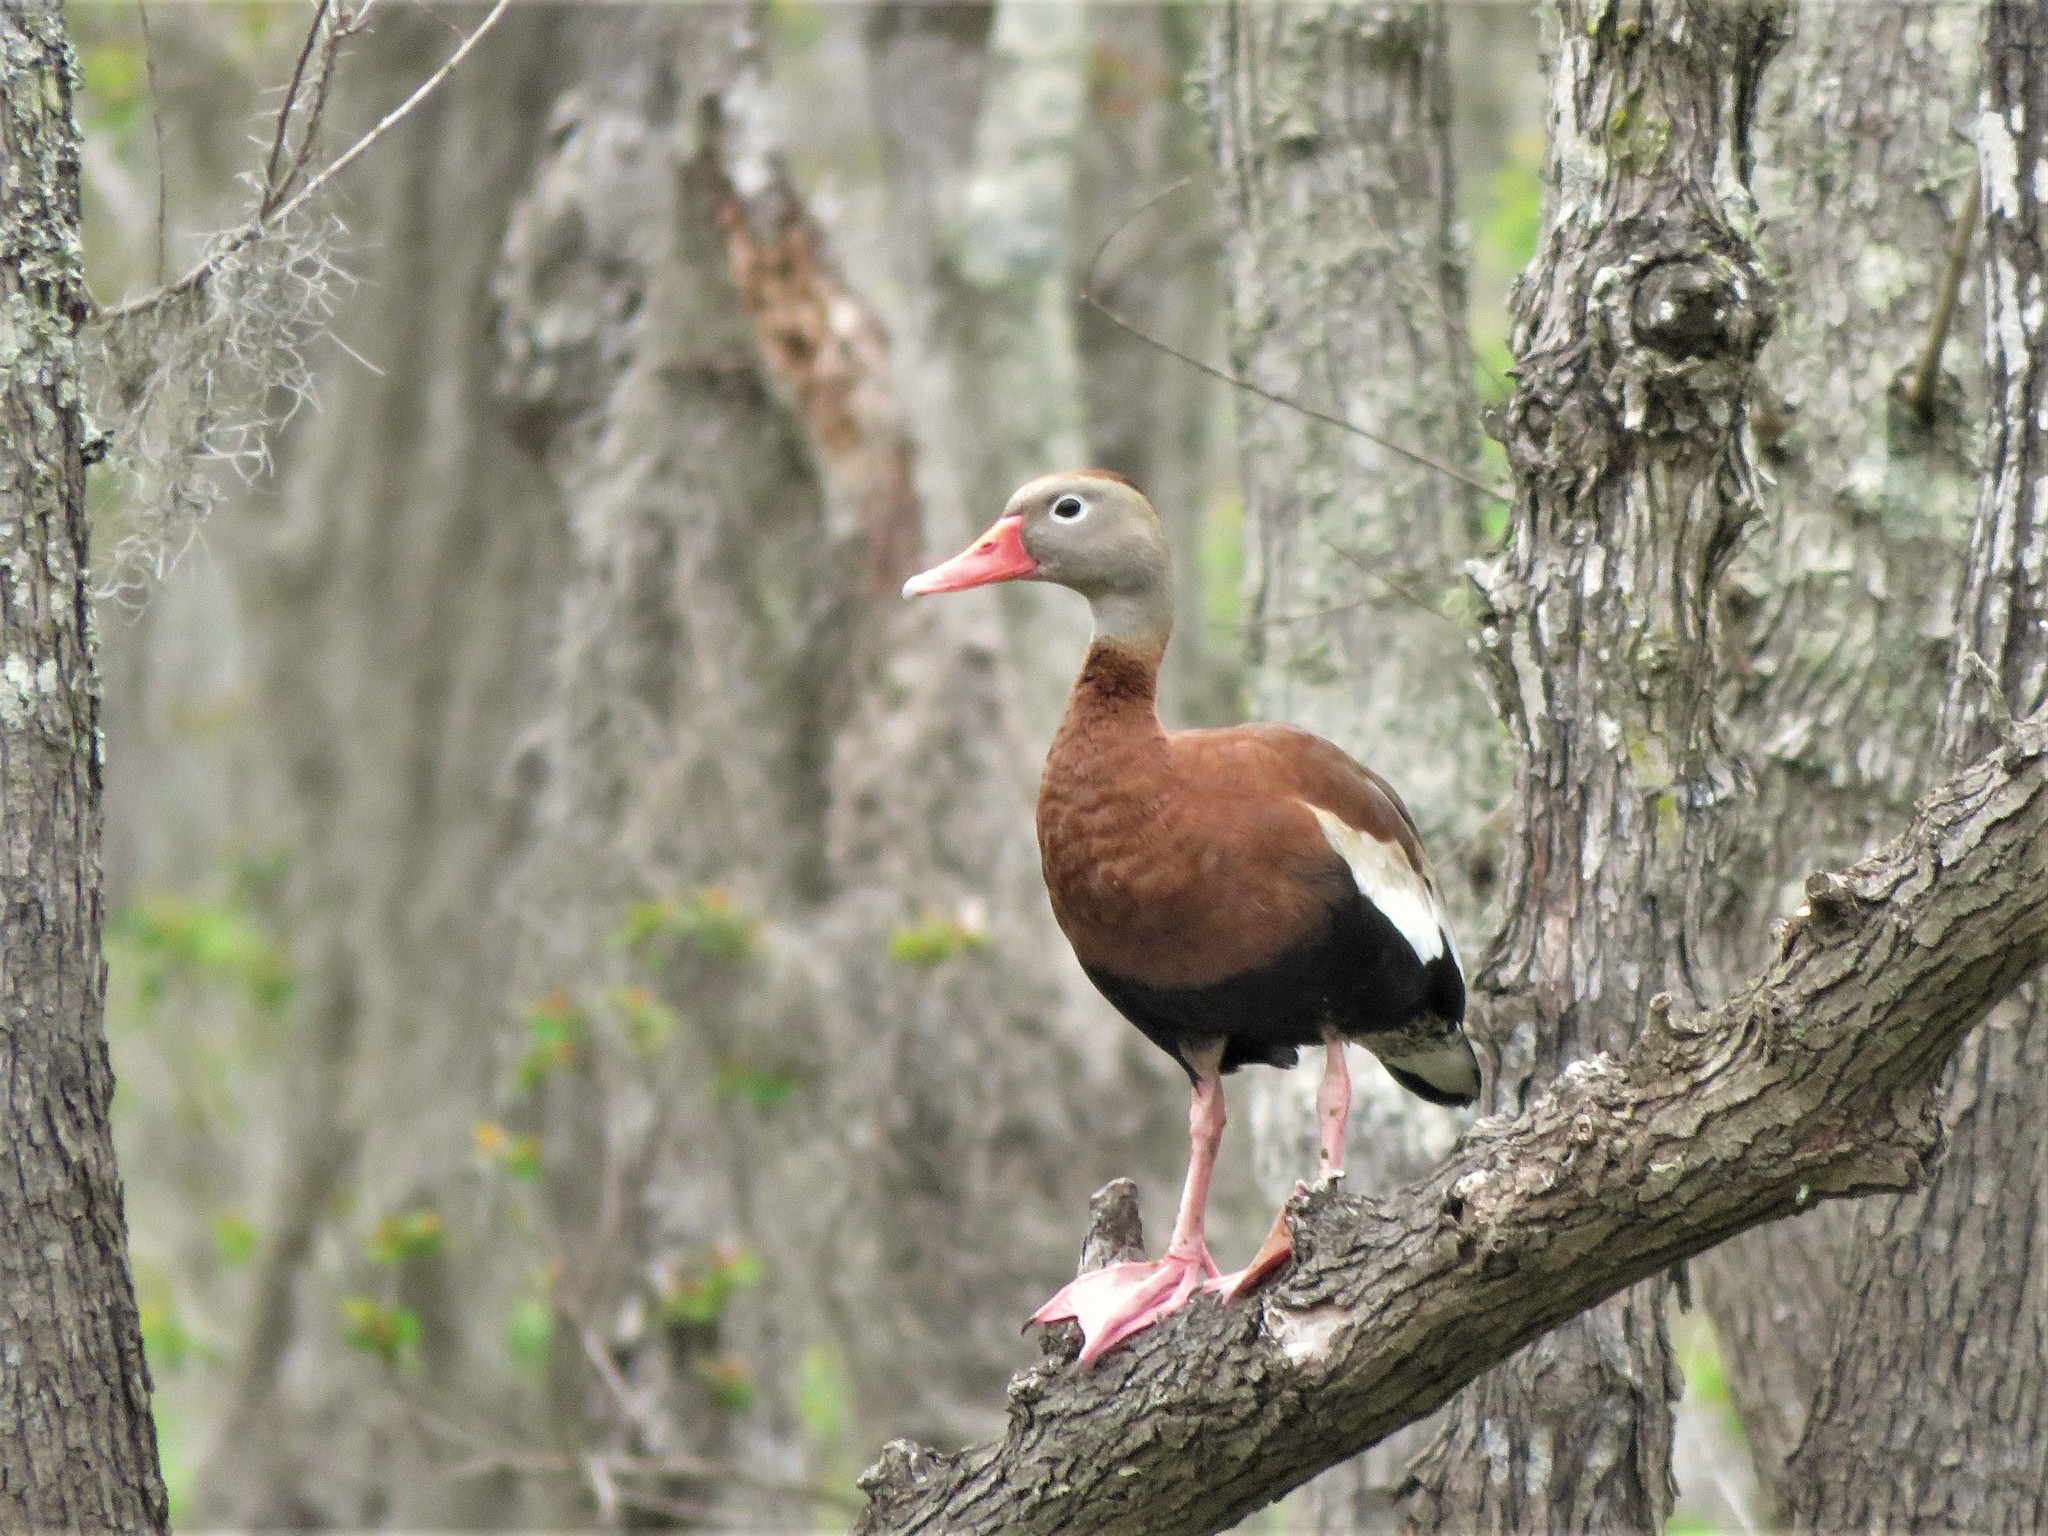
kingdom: Animalia
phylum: Chordata
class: Aves
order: Anseriformes
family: Anatidae
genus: Dendrocygna
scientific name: Dendrocygna autumnalis
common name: Black-bellied whistling duck
